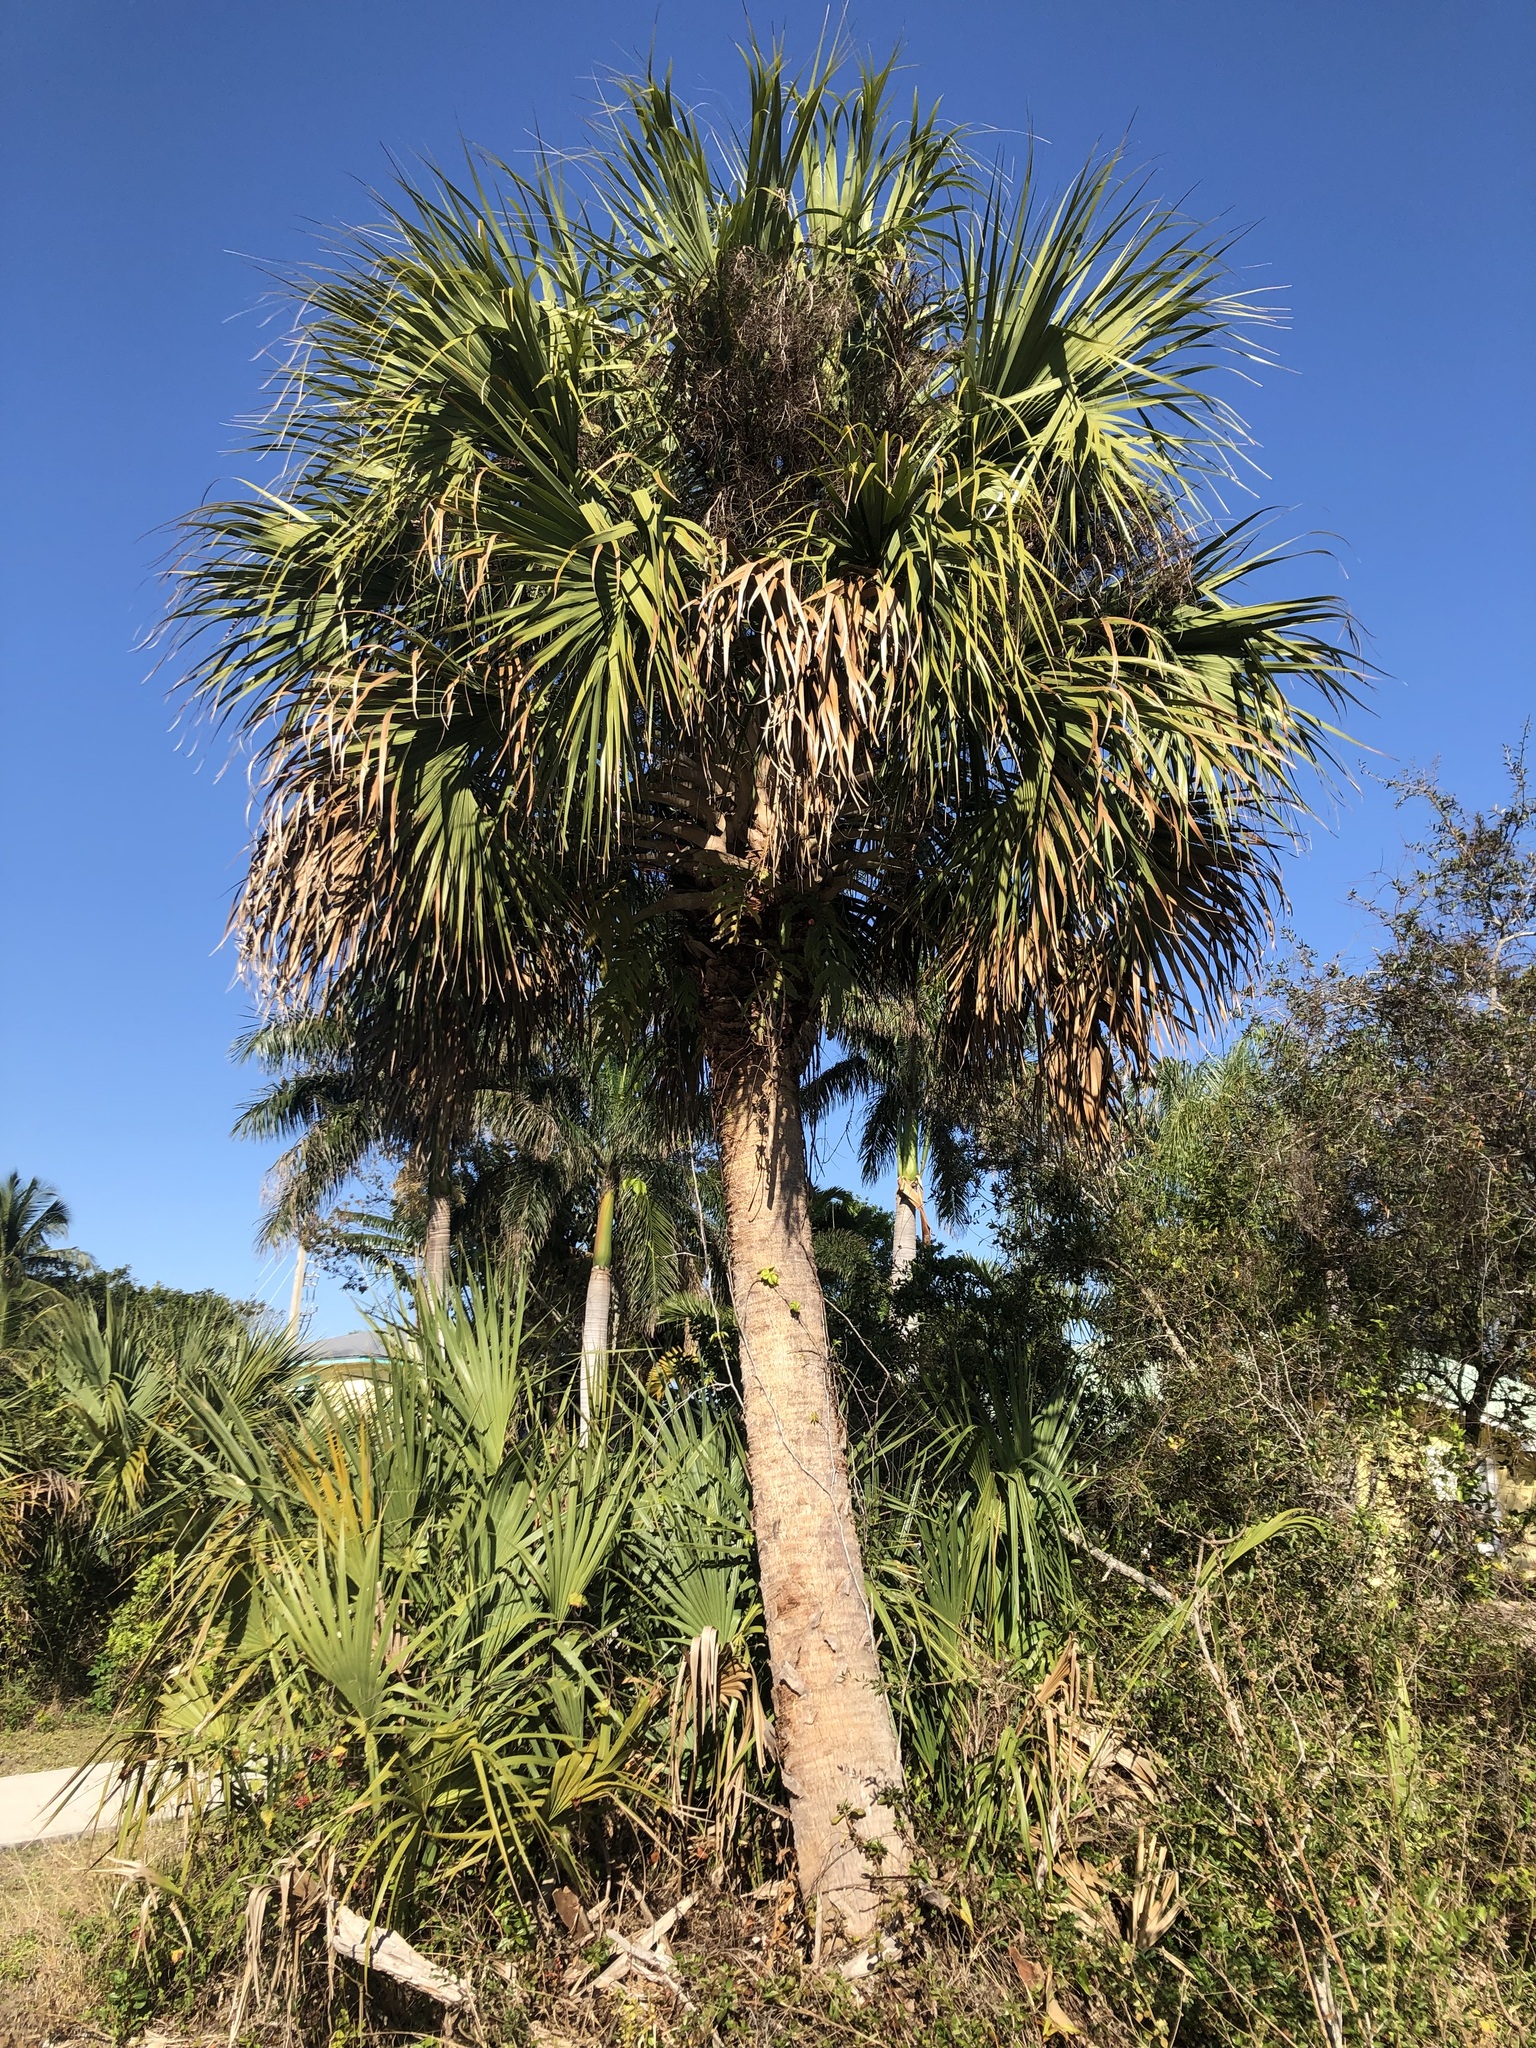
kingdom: Plantae
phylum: Tracheophyta
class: Liliopsida
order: Arecales
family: Arecaceae
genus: Sabal
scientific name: Sabal palmetto
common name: Blue palmetto
